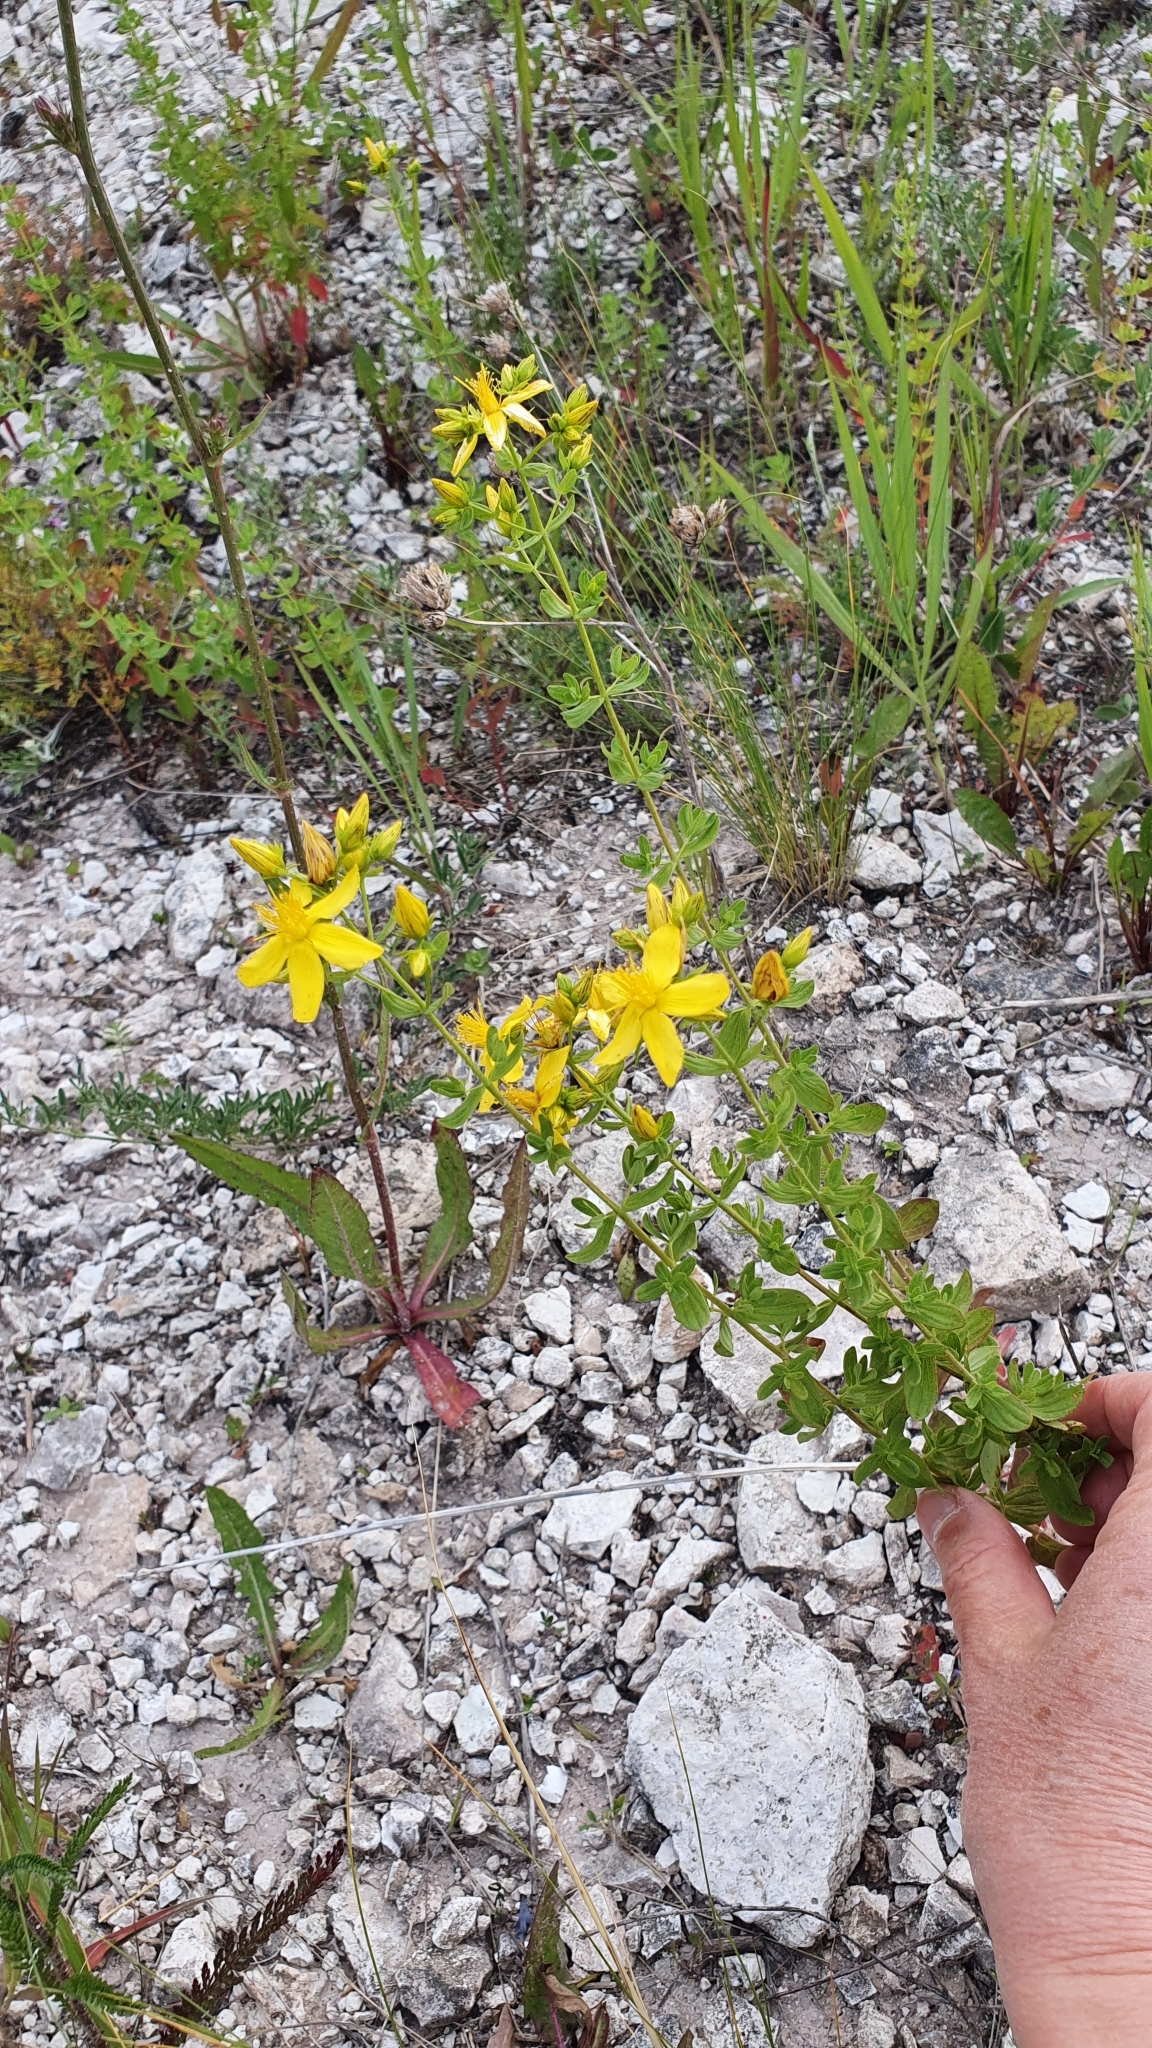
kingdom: Plantae
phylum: Tracheophyta
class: Magnoliopsida
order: Malpighiales
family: Hypericaceae
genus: Hypericum
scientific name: Hypericum perforatum
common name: Common st. johnswort
